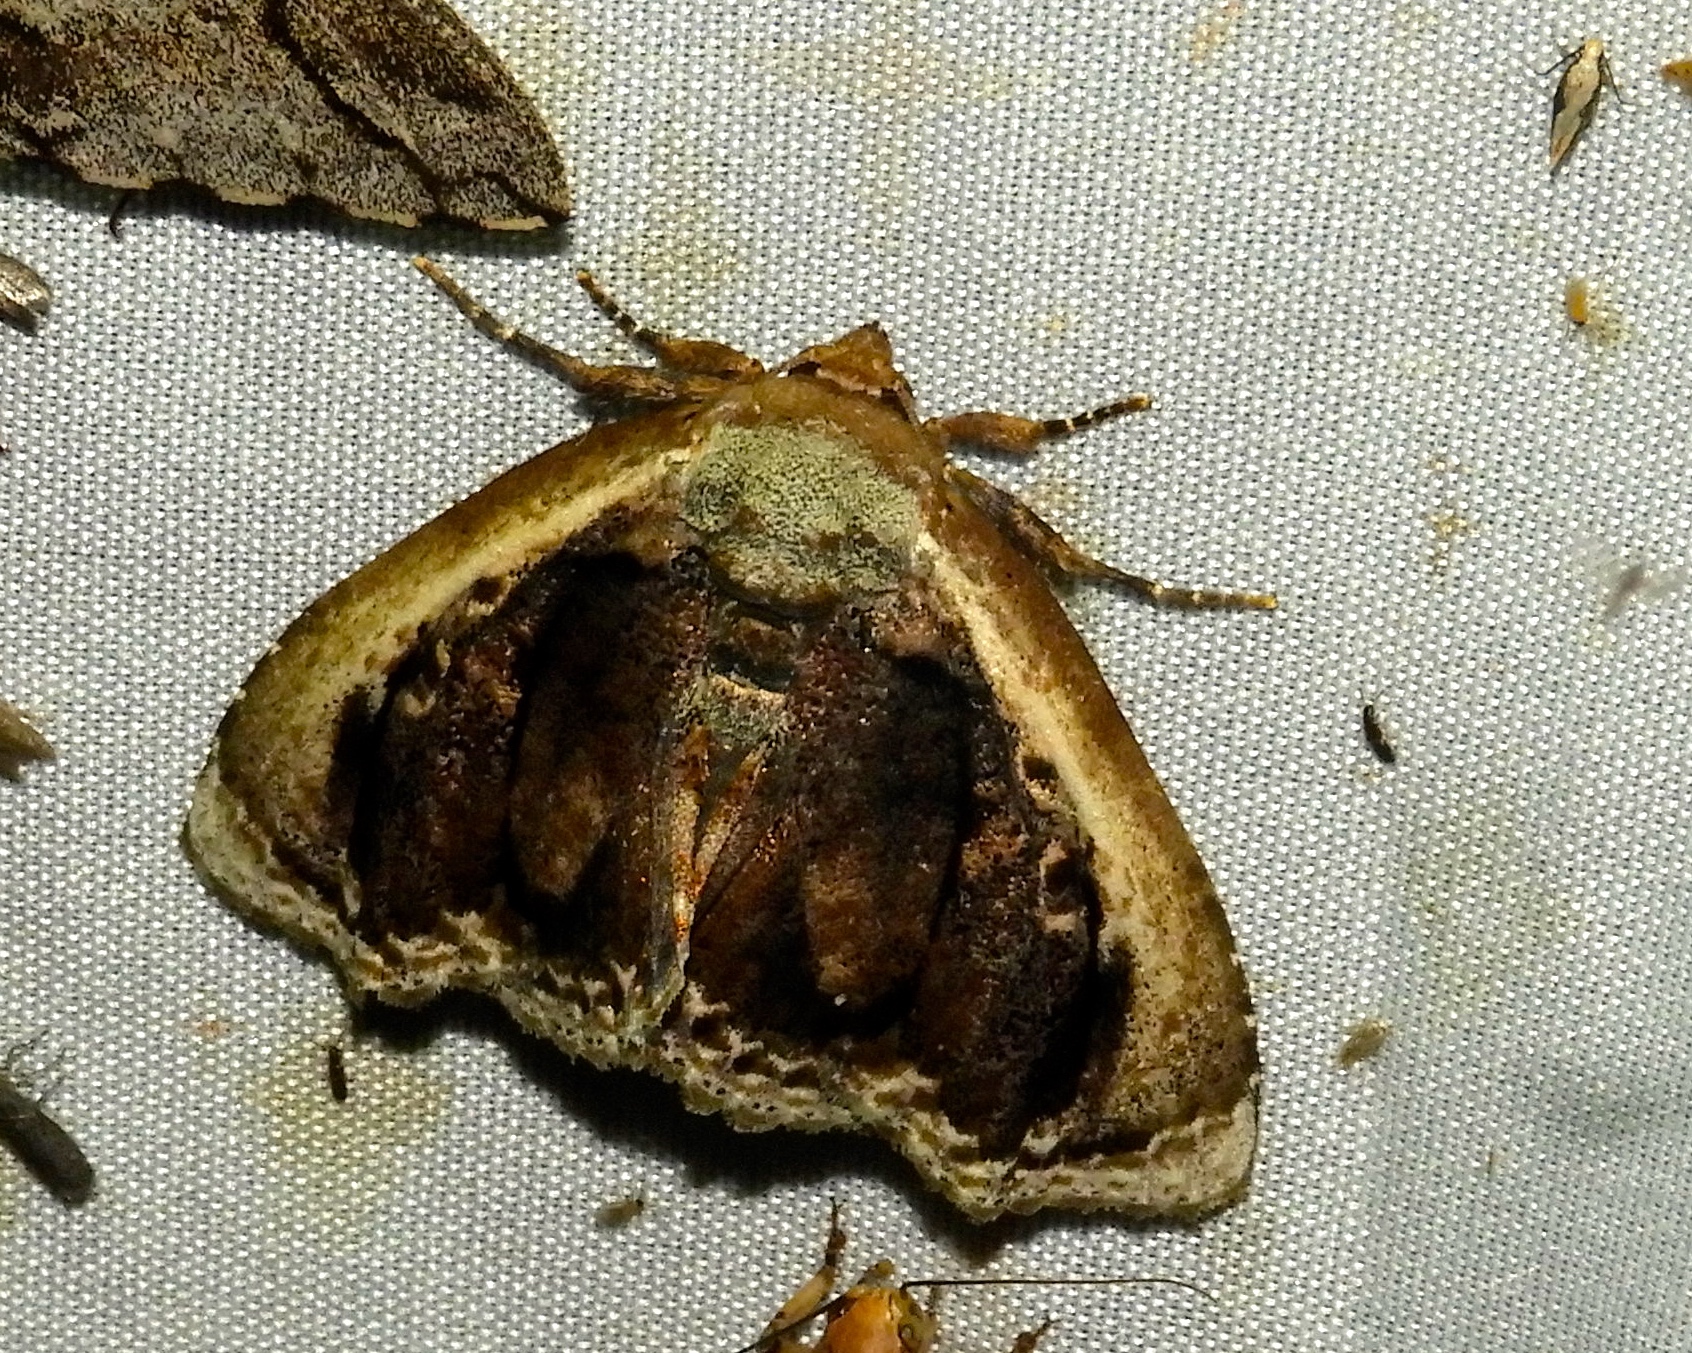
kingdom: Animalia
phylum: Arthropoda
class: Insecta
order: Lepidoptera
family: Erebidae
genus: Lepidodes
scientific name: Lepidodes limbulata
